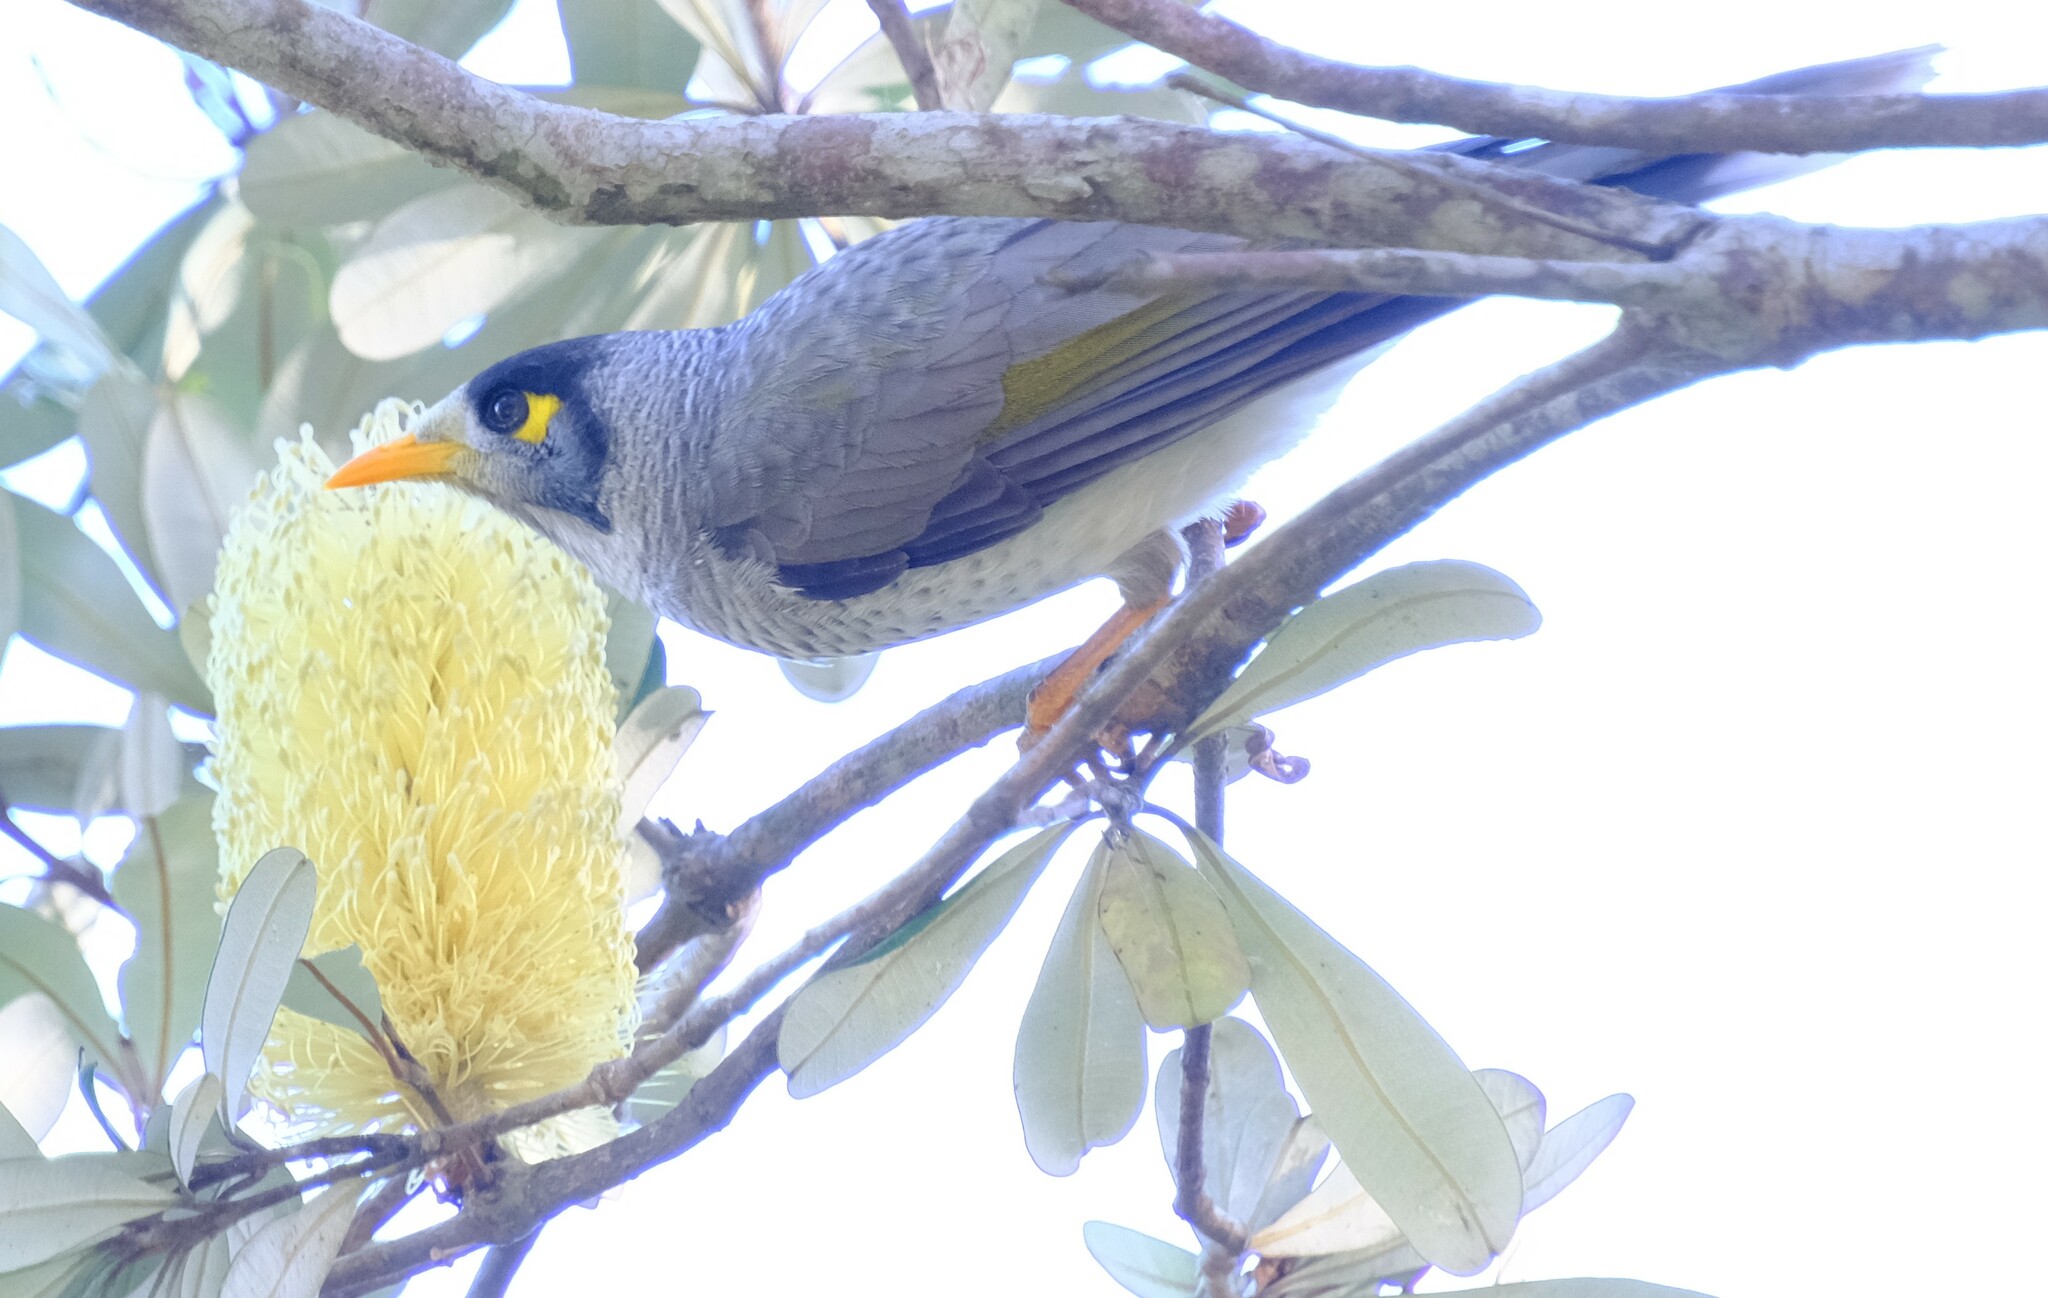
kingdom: Animalia
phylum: Chordata
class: Aves
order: Passeriformes
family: Meliphagidae
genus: Manorina
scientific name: Manorina melanocephala
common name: Noisy miner
